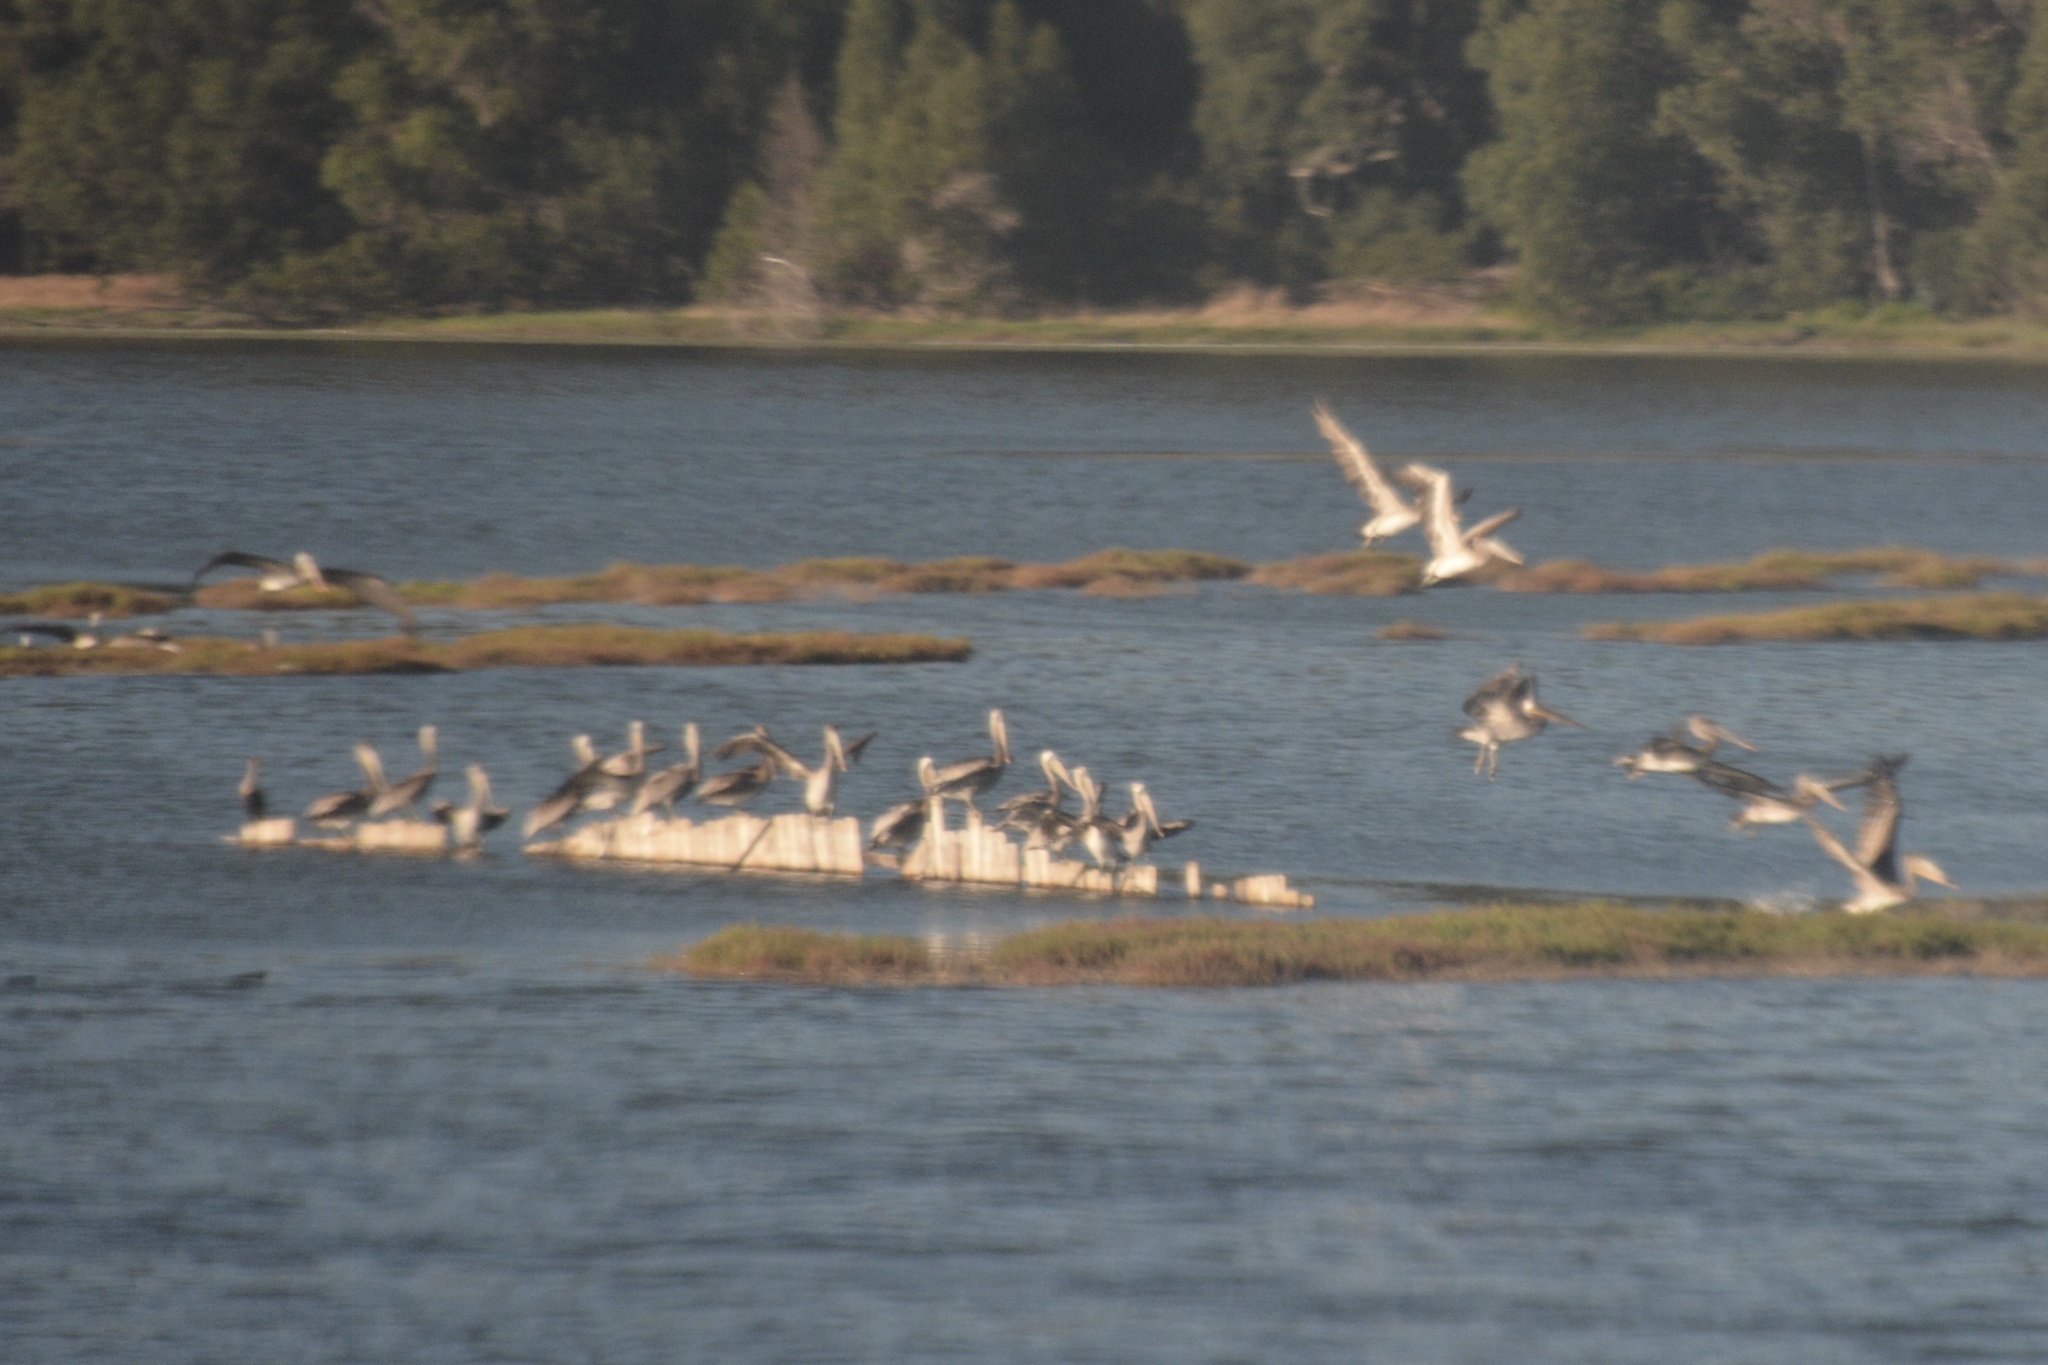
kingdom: Animalia
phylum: Chordata
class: Aves
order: Pelecaniformes
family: Pelecanidae
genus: Pelecanus
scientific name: Pelecanus occidentalis
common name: Brown pelican
